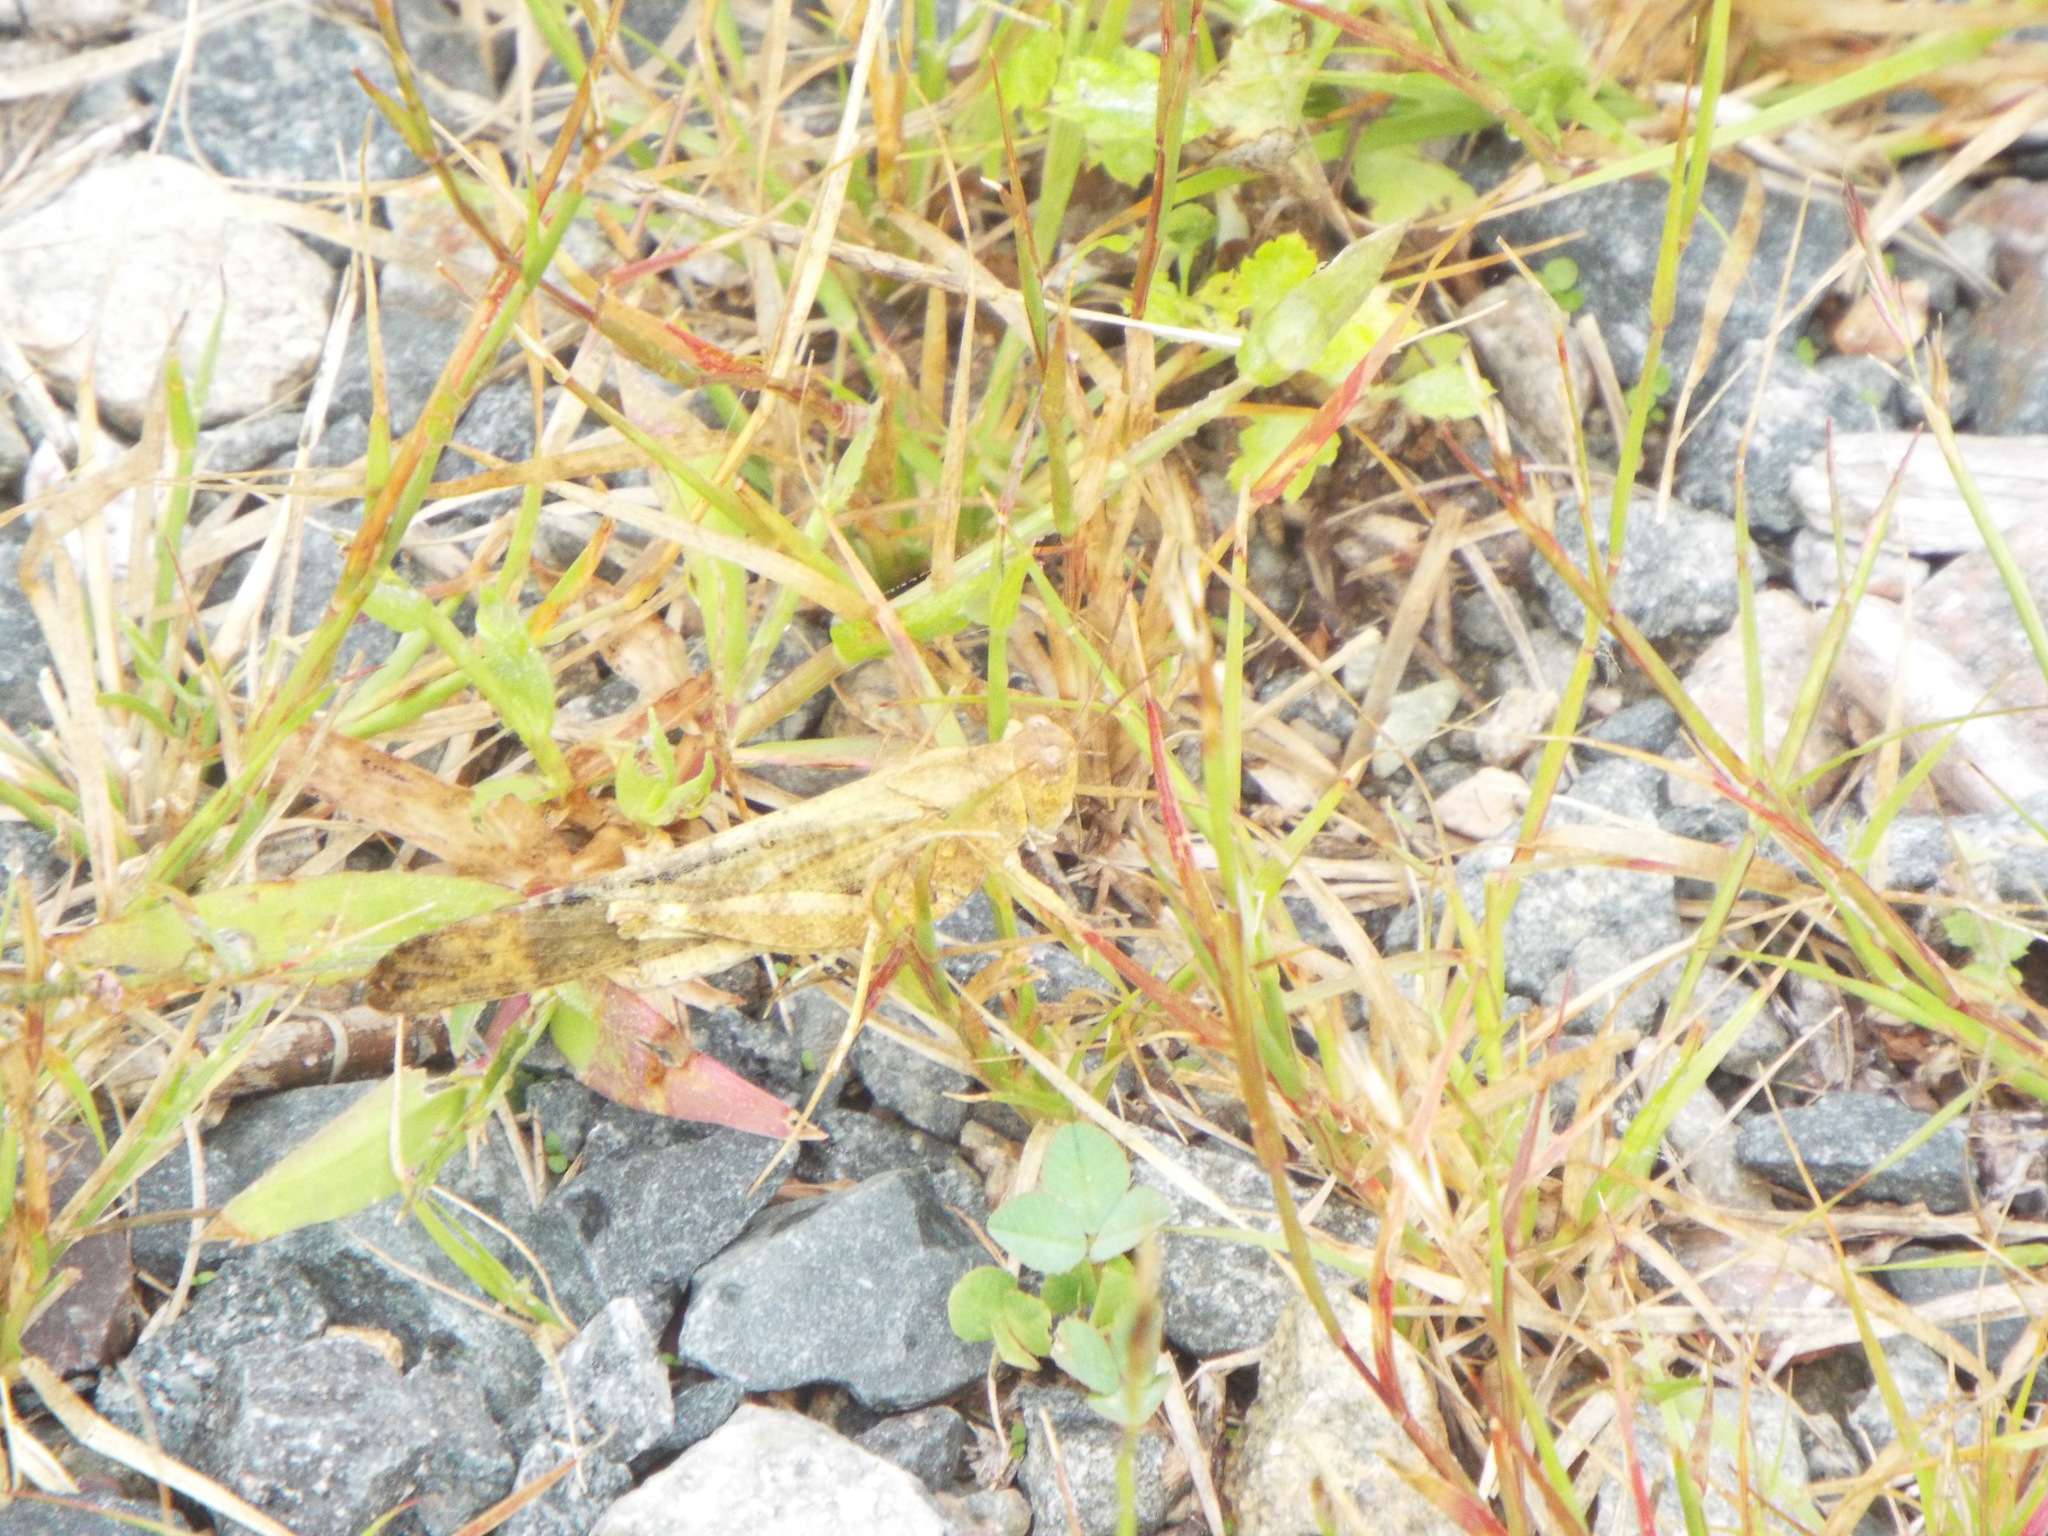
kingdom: Animalia
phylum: Arthropoda
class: Insecta
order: Orthoptera
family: Acrididae
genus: Dissosteira
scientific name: Dissosteira carolina
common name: Carolina grasshopper
